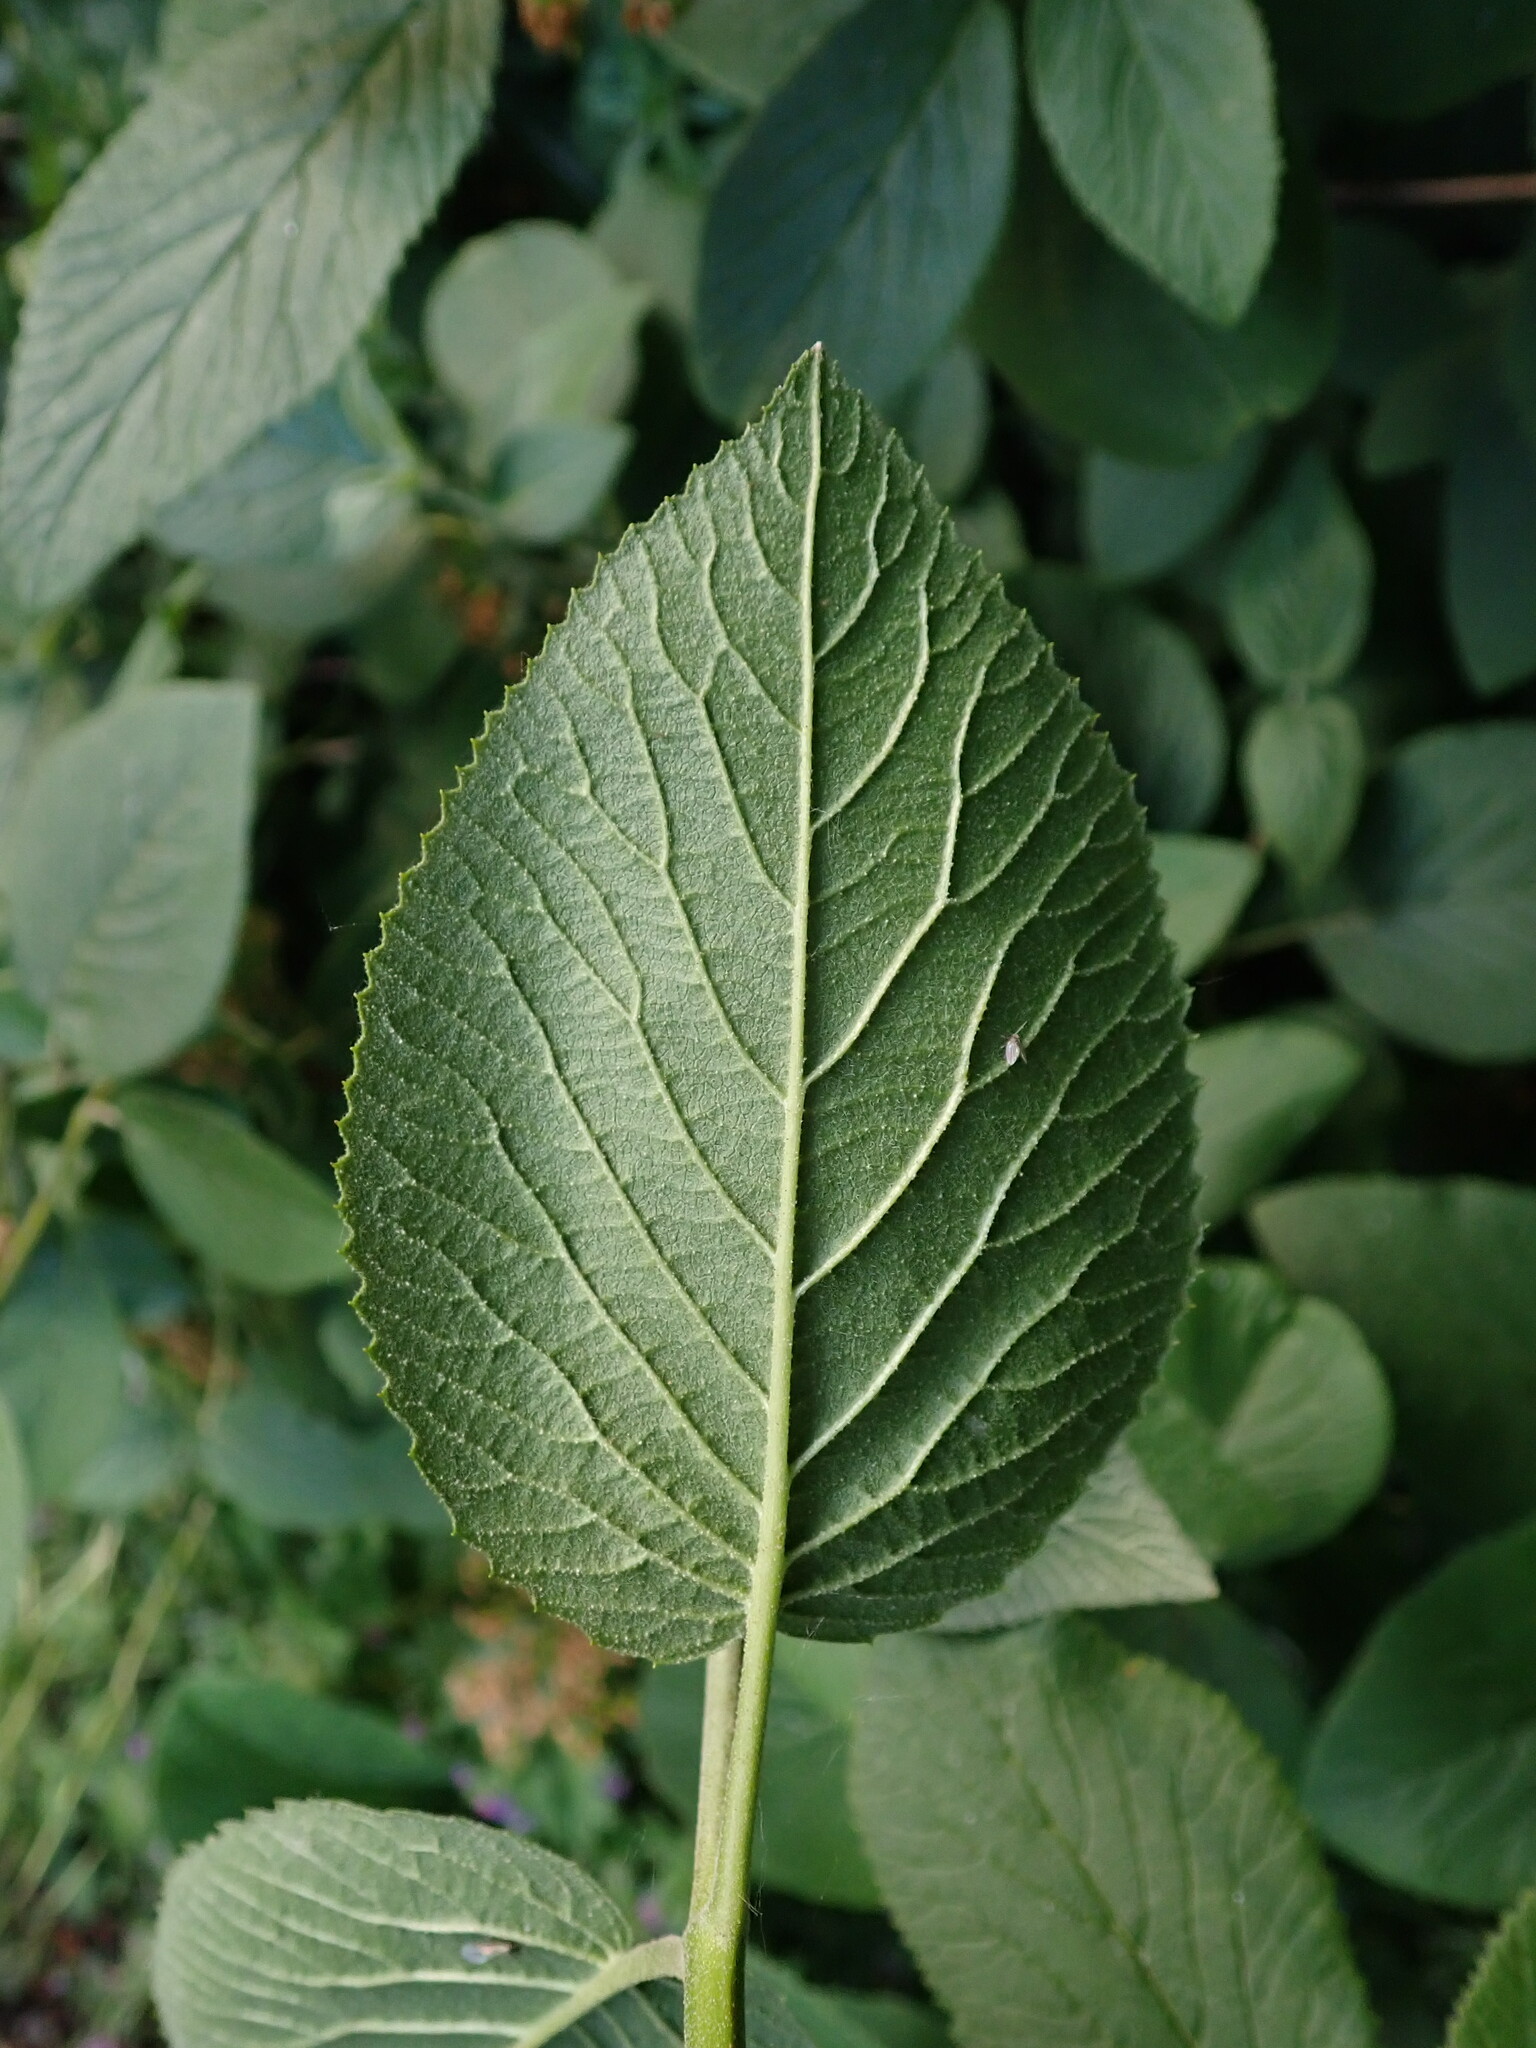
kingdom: Plantae
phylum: Tracheophyta
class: Magnoliopsida
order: Dipsacales
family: Viburnaceae
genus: Viburnum
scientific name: Viburnum lantana
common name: Wayfaring tree
